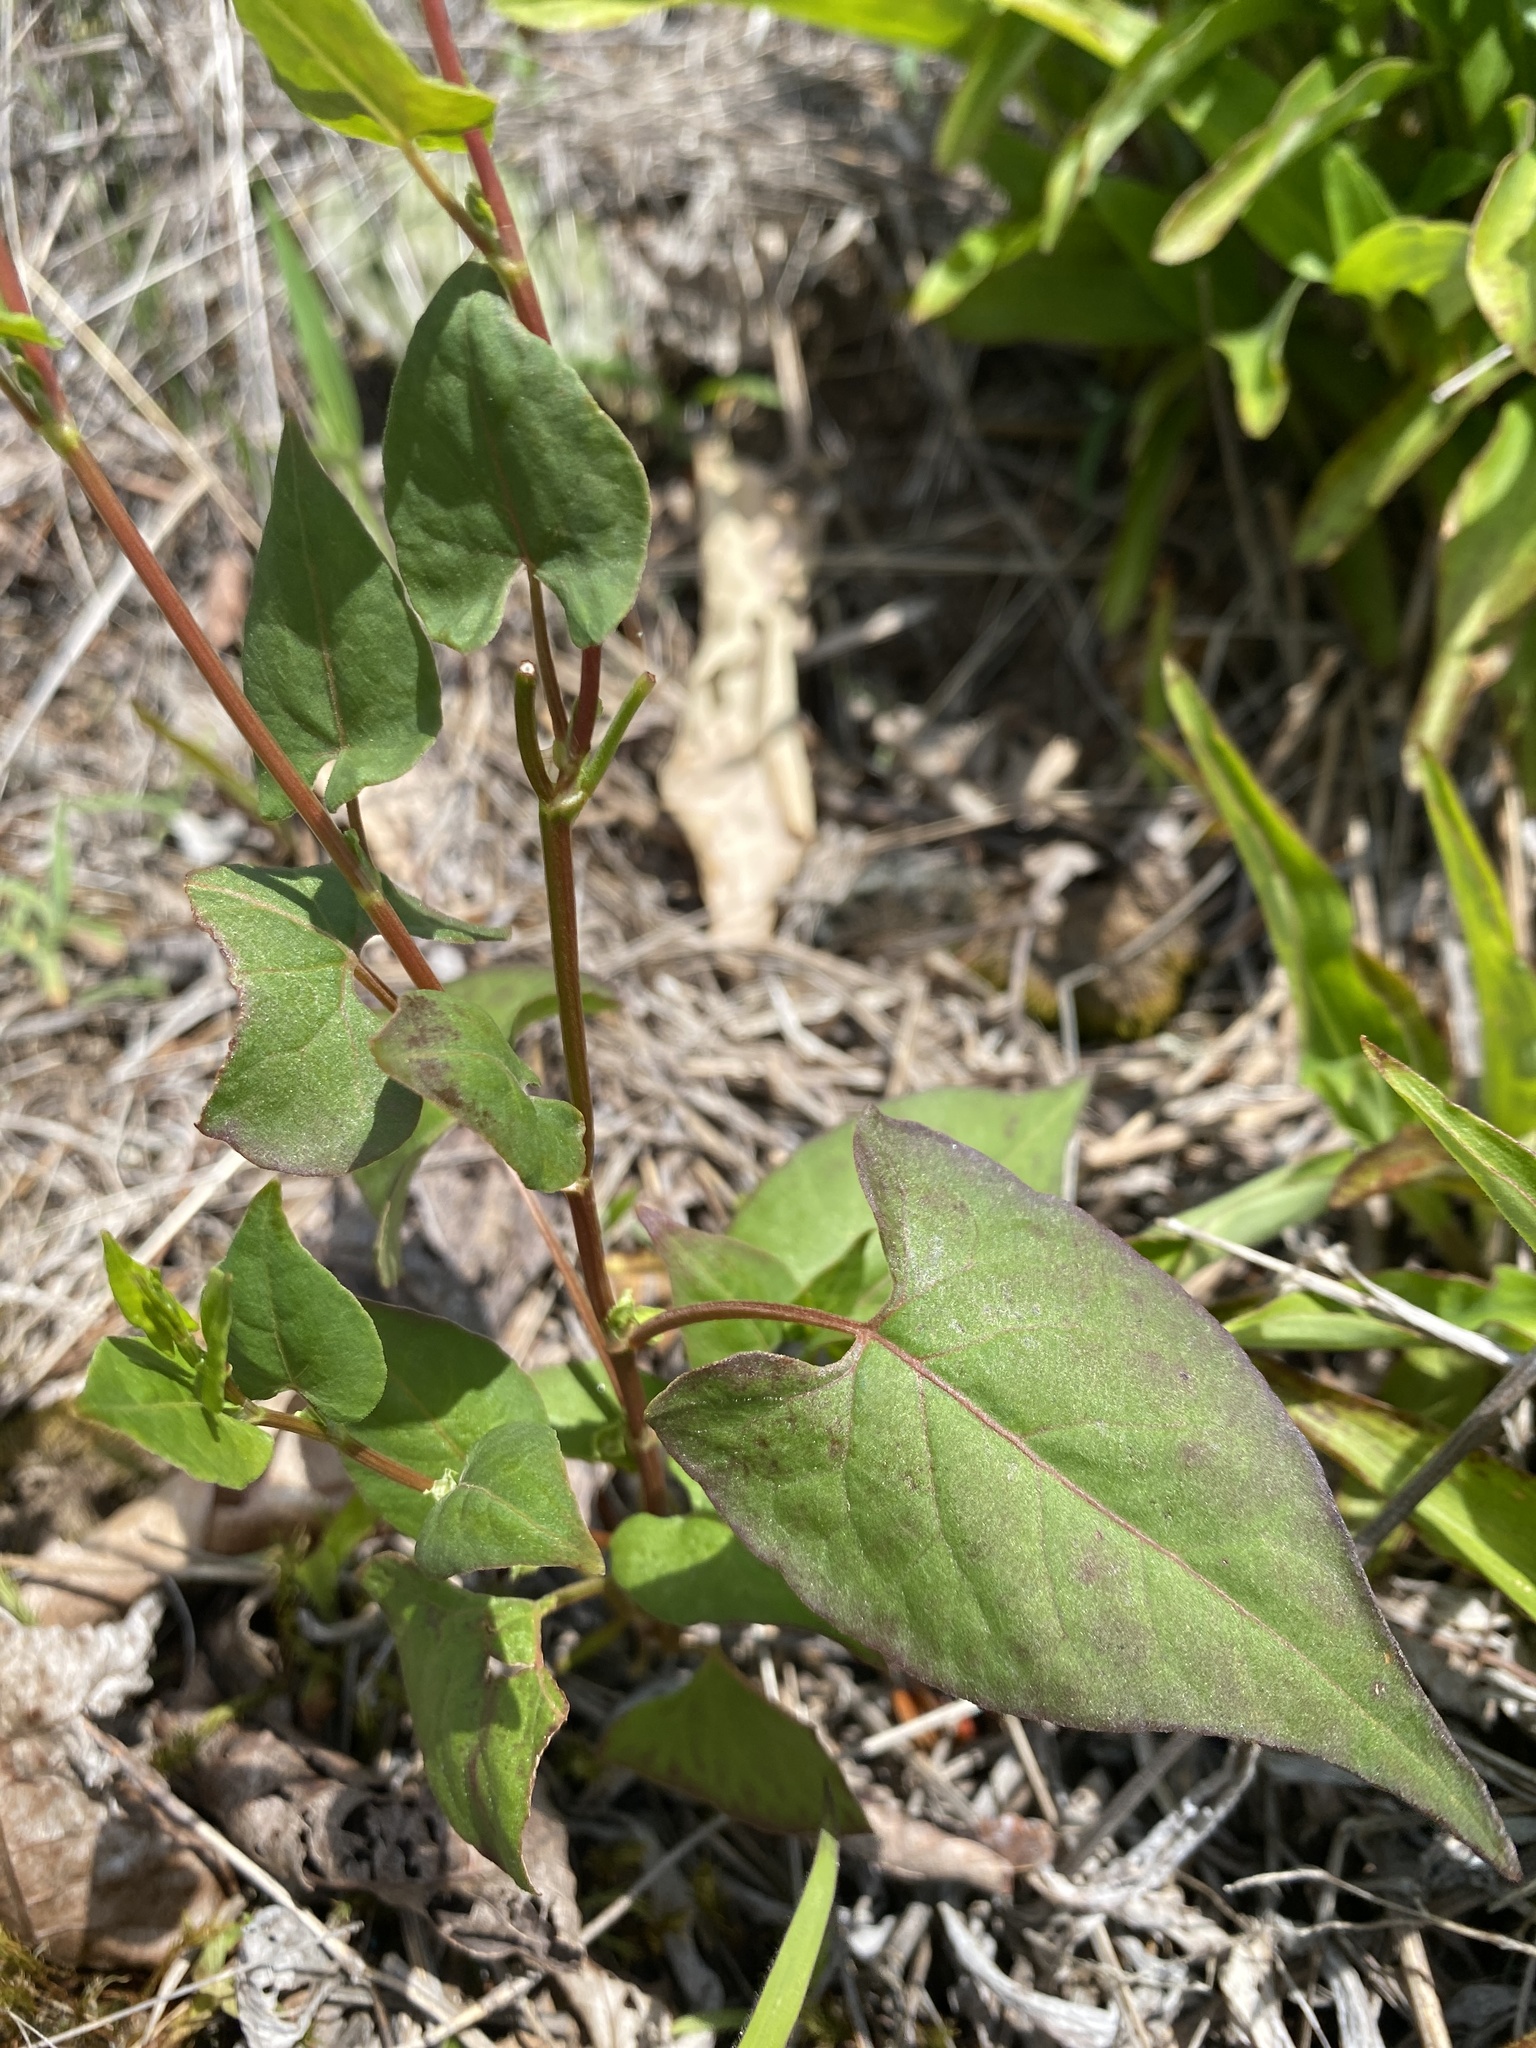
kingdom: Plantae
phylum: Tracheophyta
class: Magnoliopsida
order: Caryophyllales
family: Polygonaceae
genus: Fallopia
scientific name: Fallopia scandens
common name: Climbing false buckwheat
